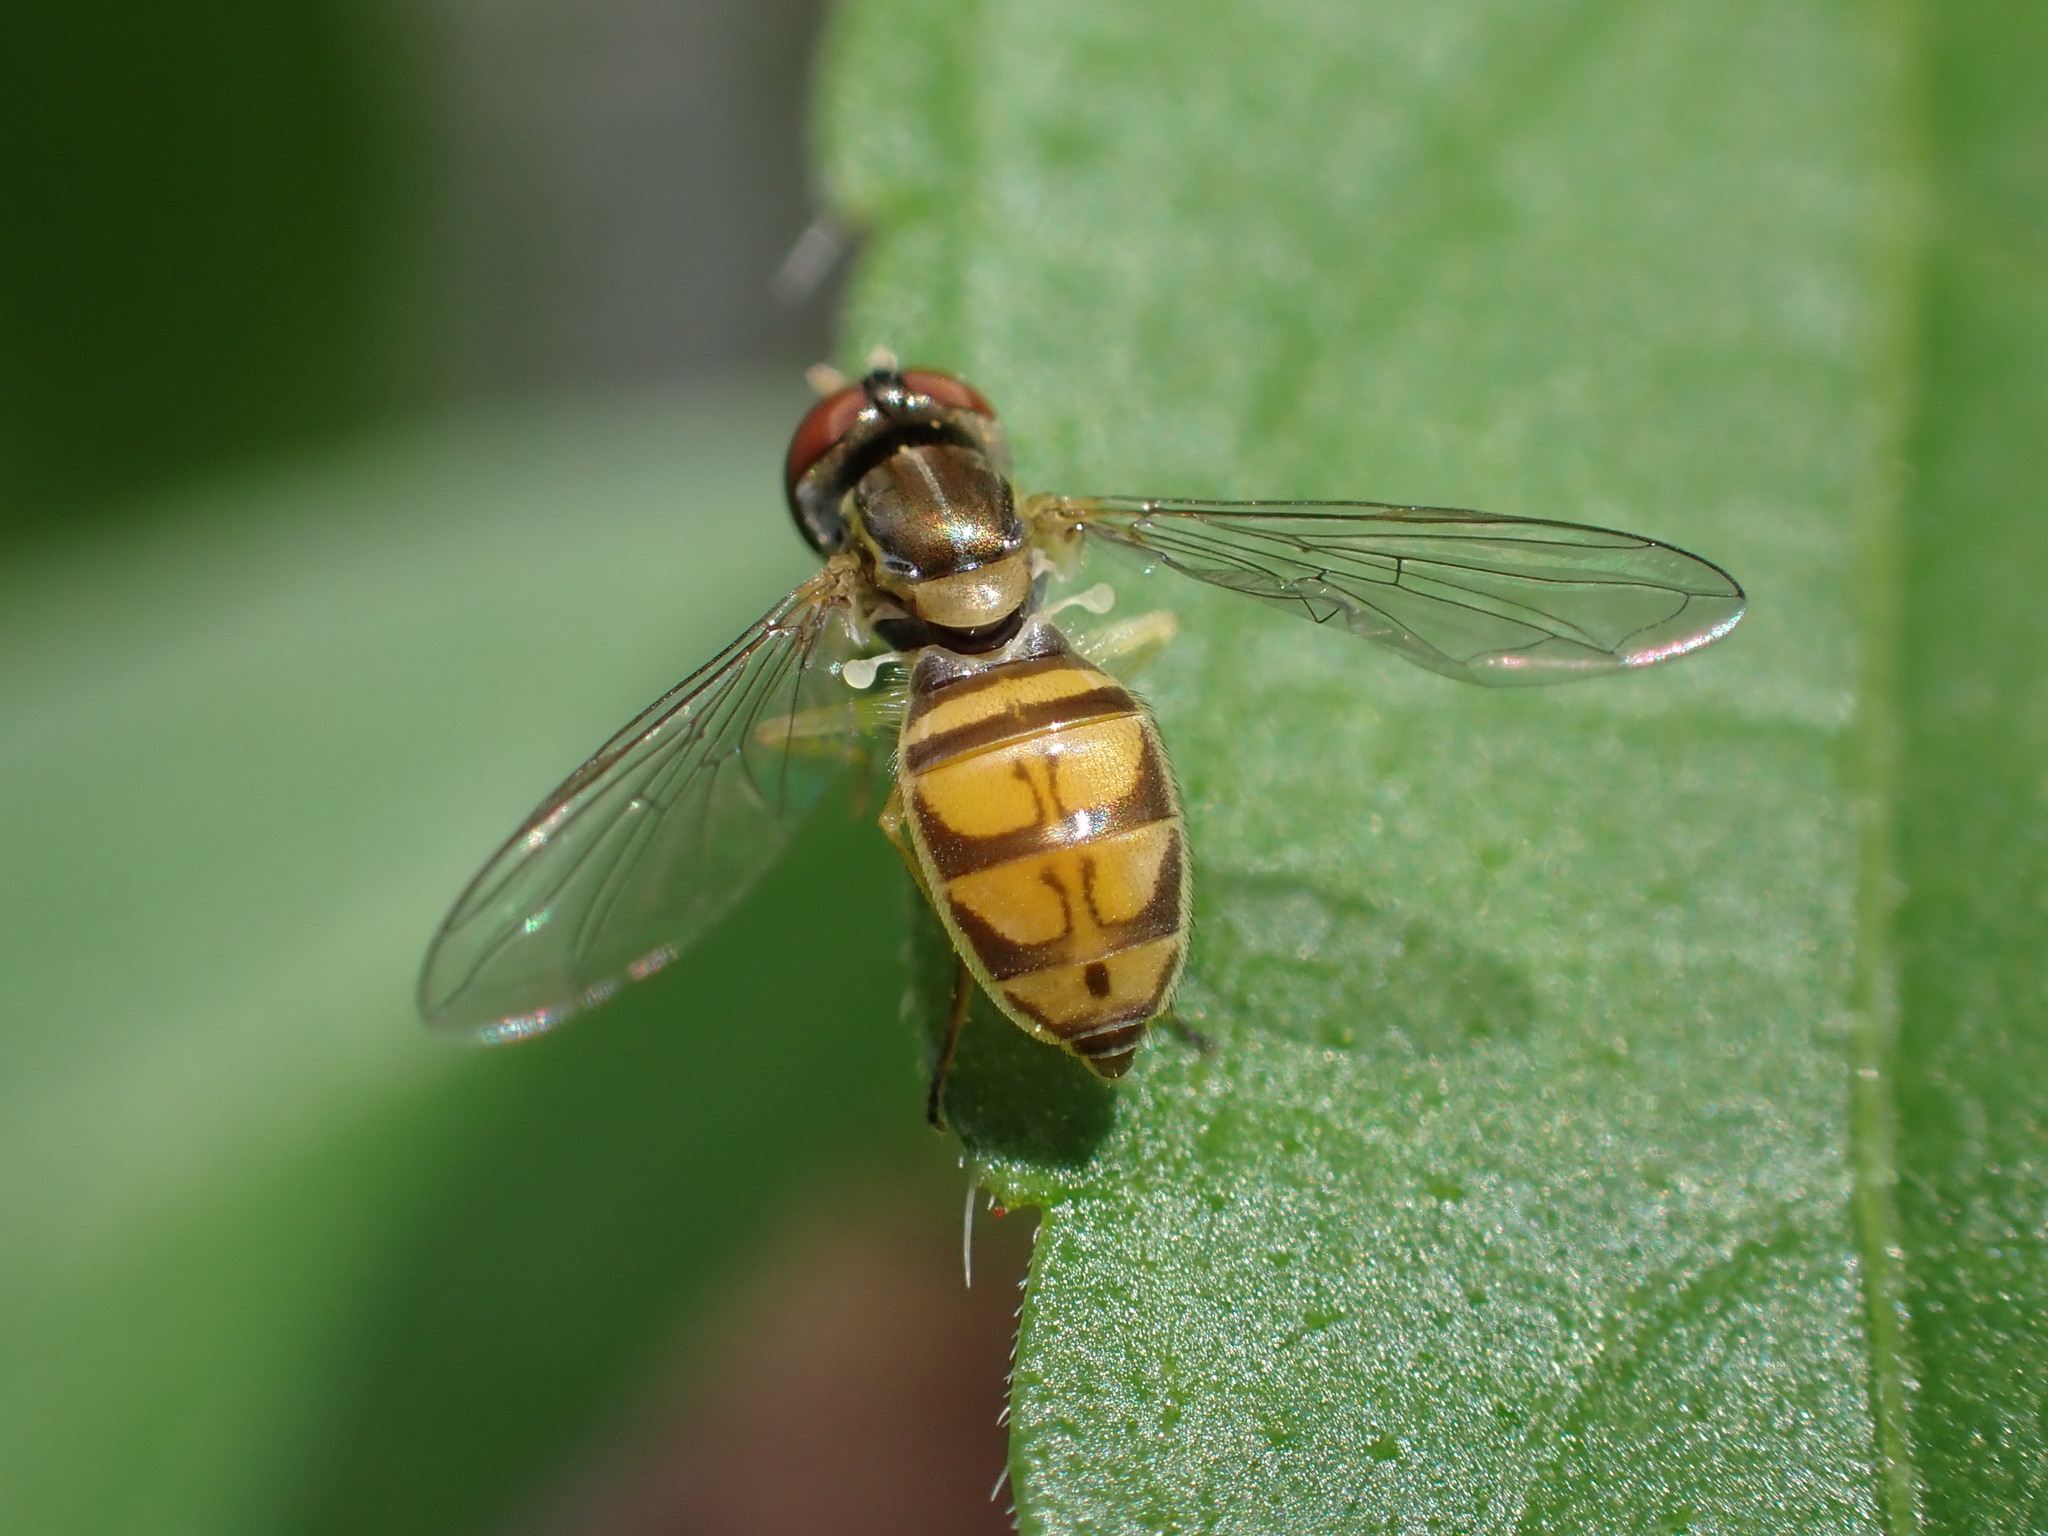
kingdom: Animalia
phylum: Arthropoda
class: Insecta
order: Diptera
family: Syrphidae
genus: Toxomerus
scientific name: Toxomerus marginatus
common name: Syrphid fly
